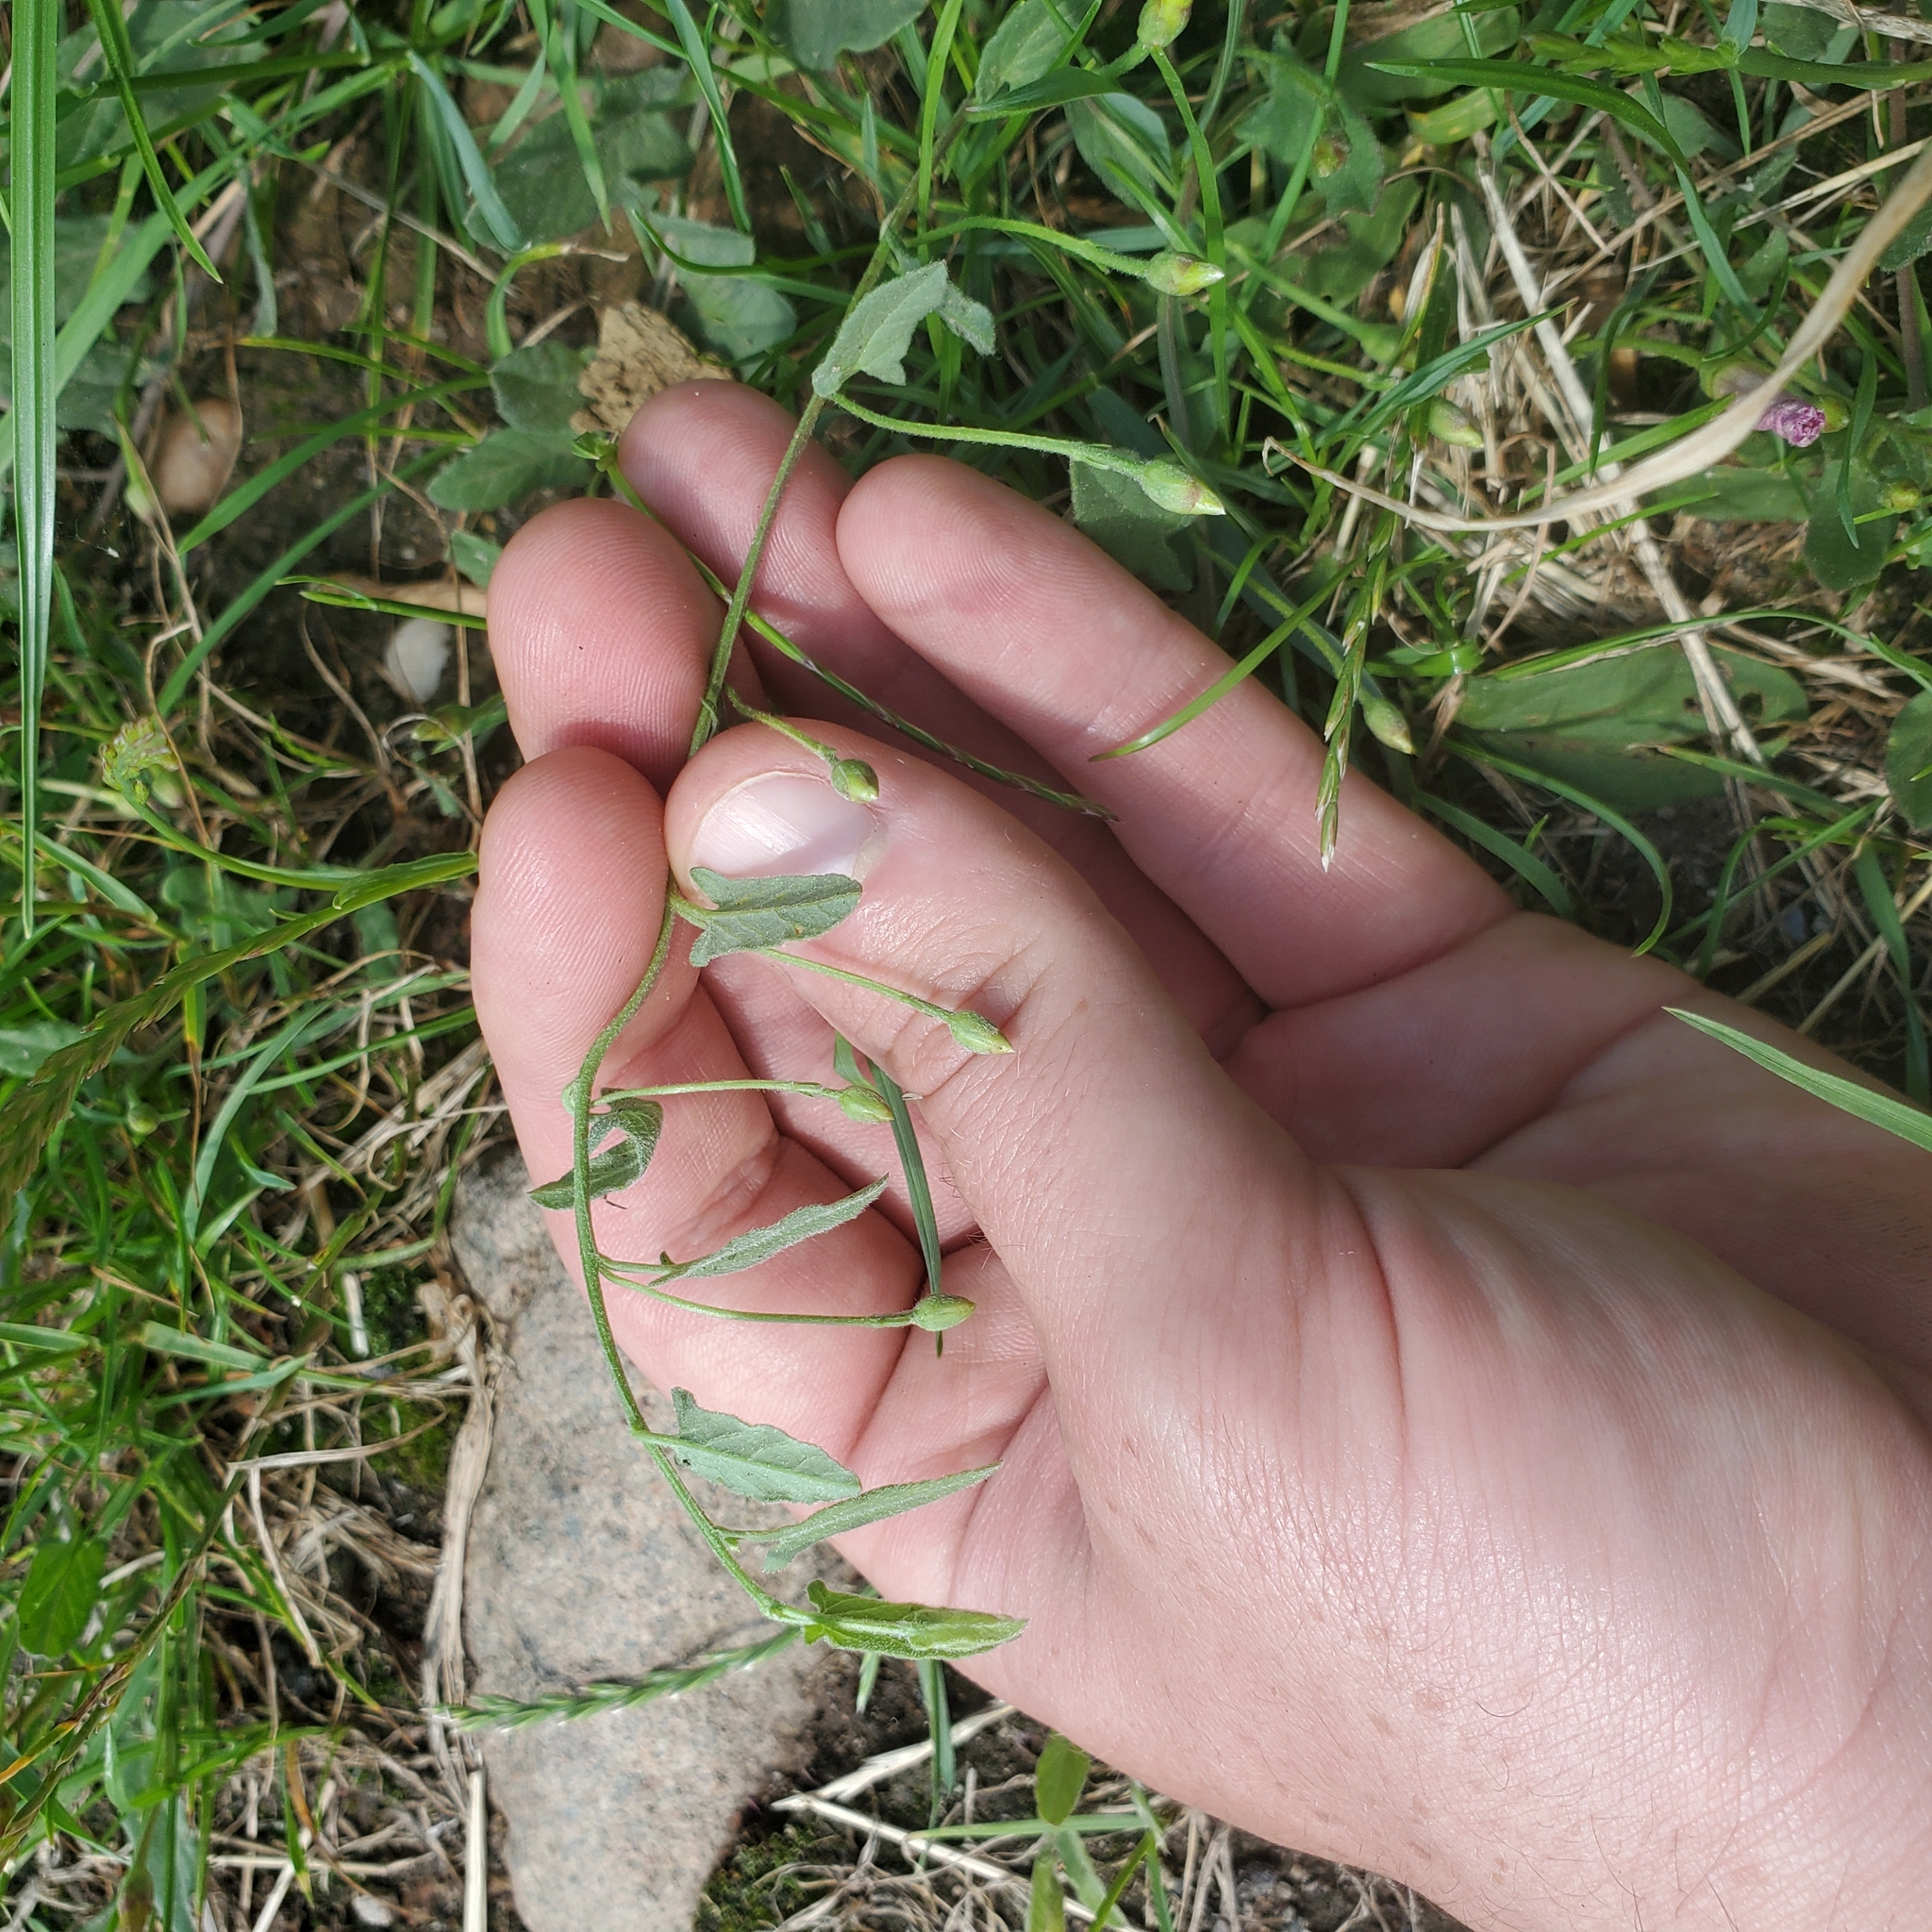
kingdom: Plantae
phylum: Tracheophyta
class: Magnoliopsida
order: Solanales
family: Convolvulaceae
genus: Convolvulus
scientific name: Convolvulus arvensis
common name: Field bindweed
